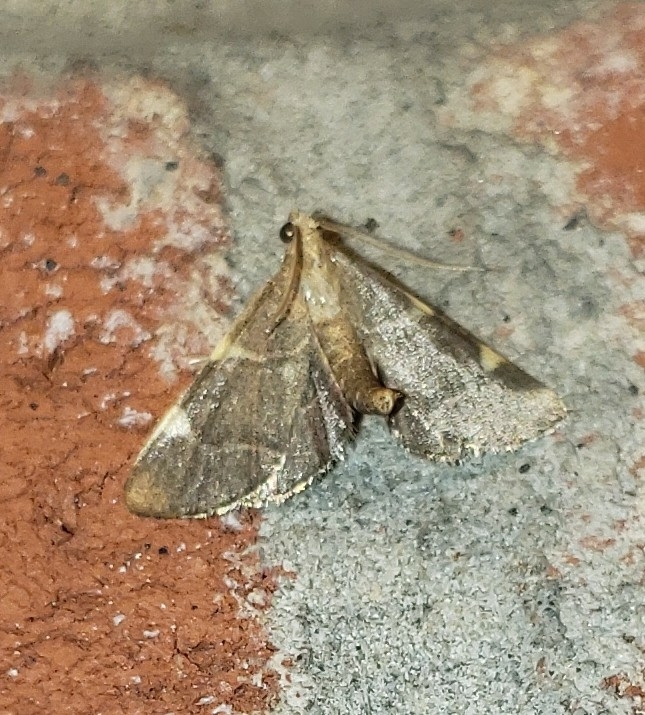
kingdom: Animalia
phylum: Arthropoda
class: Insecta
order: Lepidoptera
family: Pyralidae
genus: Hypsopygia
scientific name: Hypsopygia olinalis
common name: Yellow-fringed dolichomia moth
